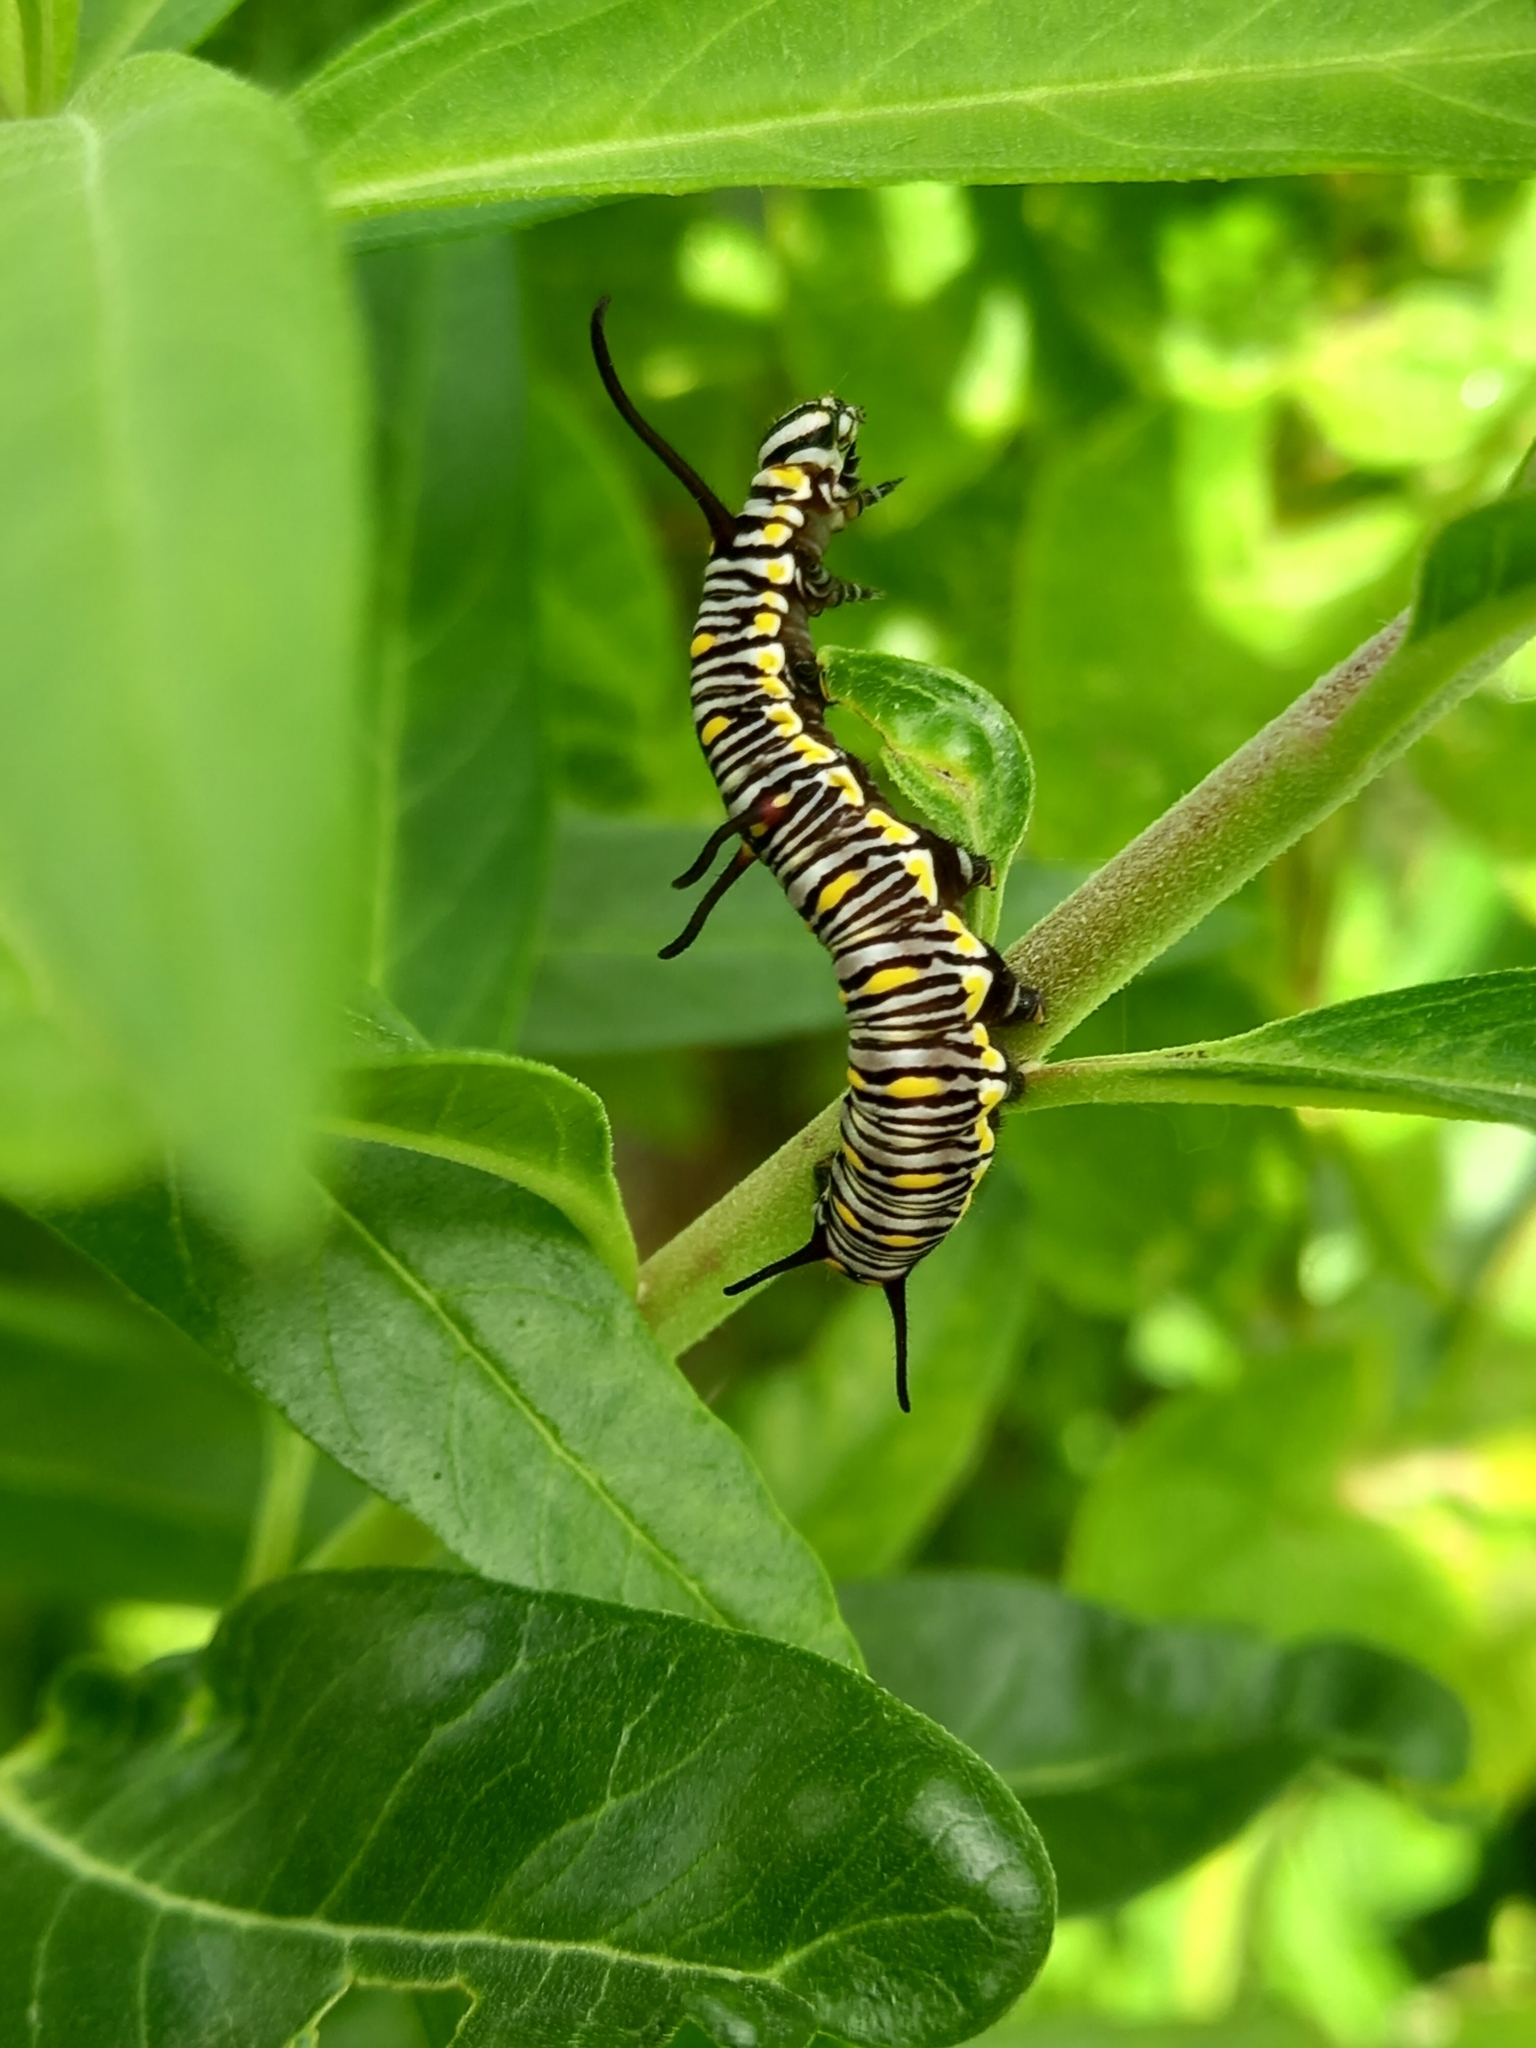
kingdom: Animalia
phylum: Arthropoda
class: Insecta
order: Lepidoptera
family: Nymphalidae
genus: Danaus
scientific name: Danaus chrysippus
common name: Plain tiger
